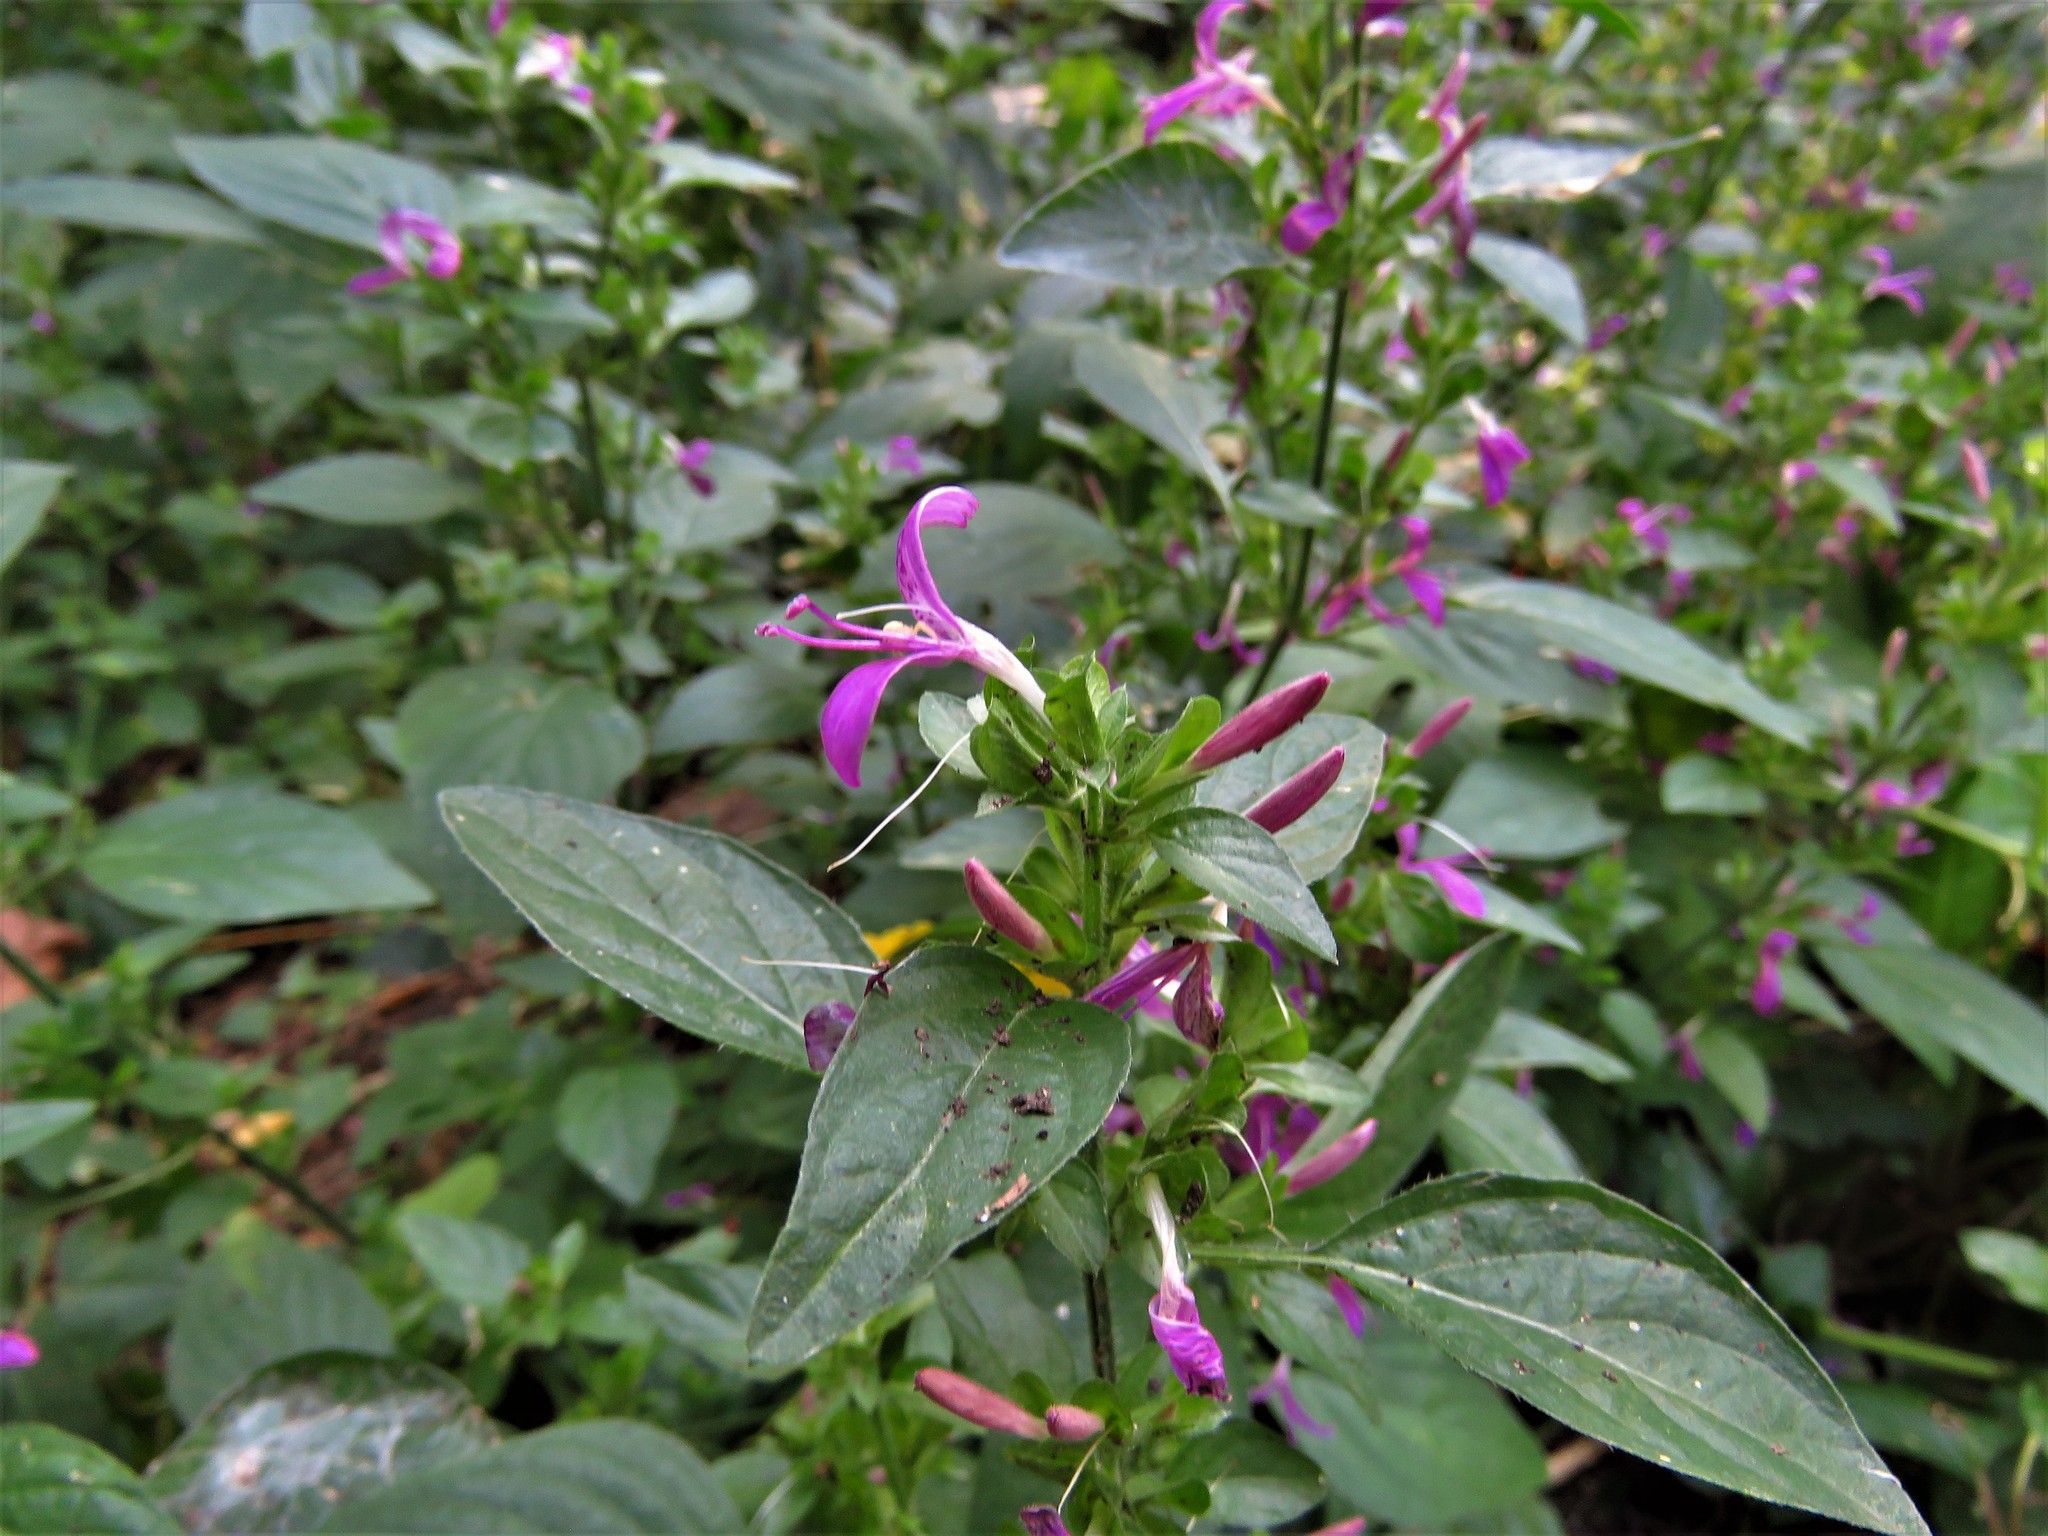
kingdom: Plantae
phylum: Tracheophyta
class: Magnoliopsida
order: Lamiales
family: Acanthaceae
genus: Dicliptera
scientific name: Dicliptera brachiata
